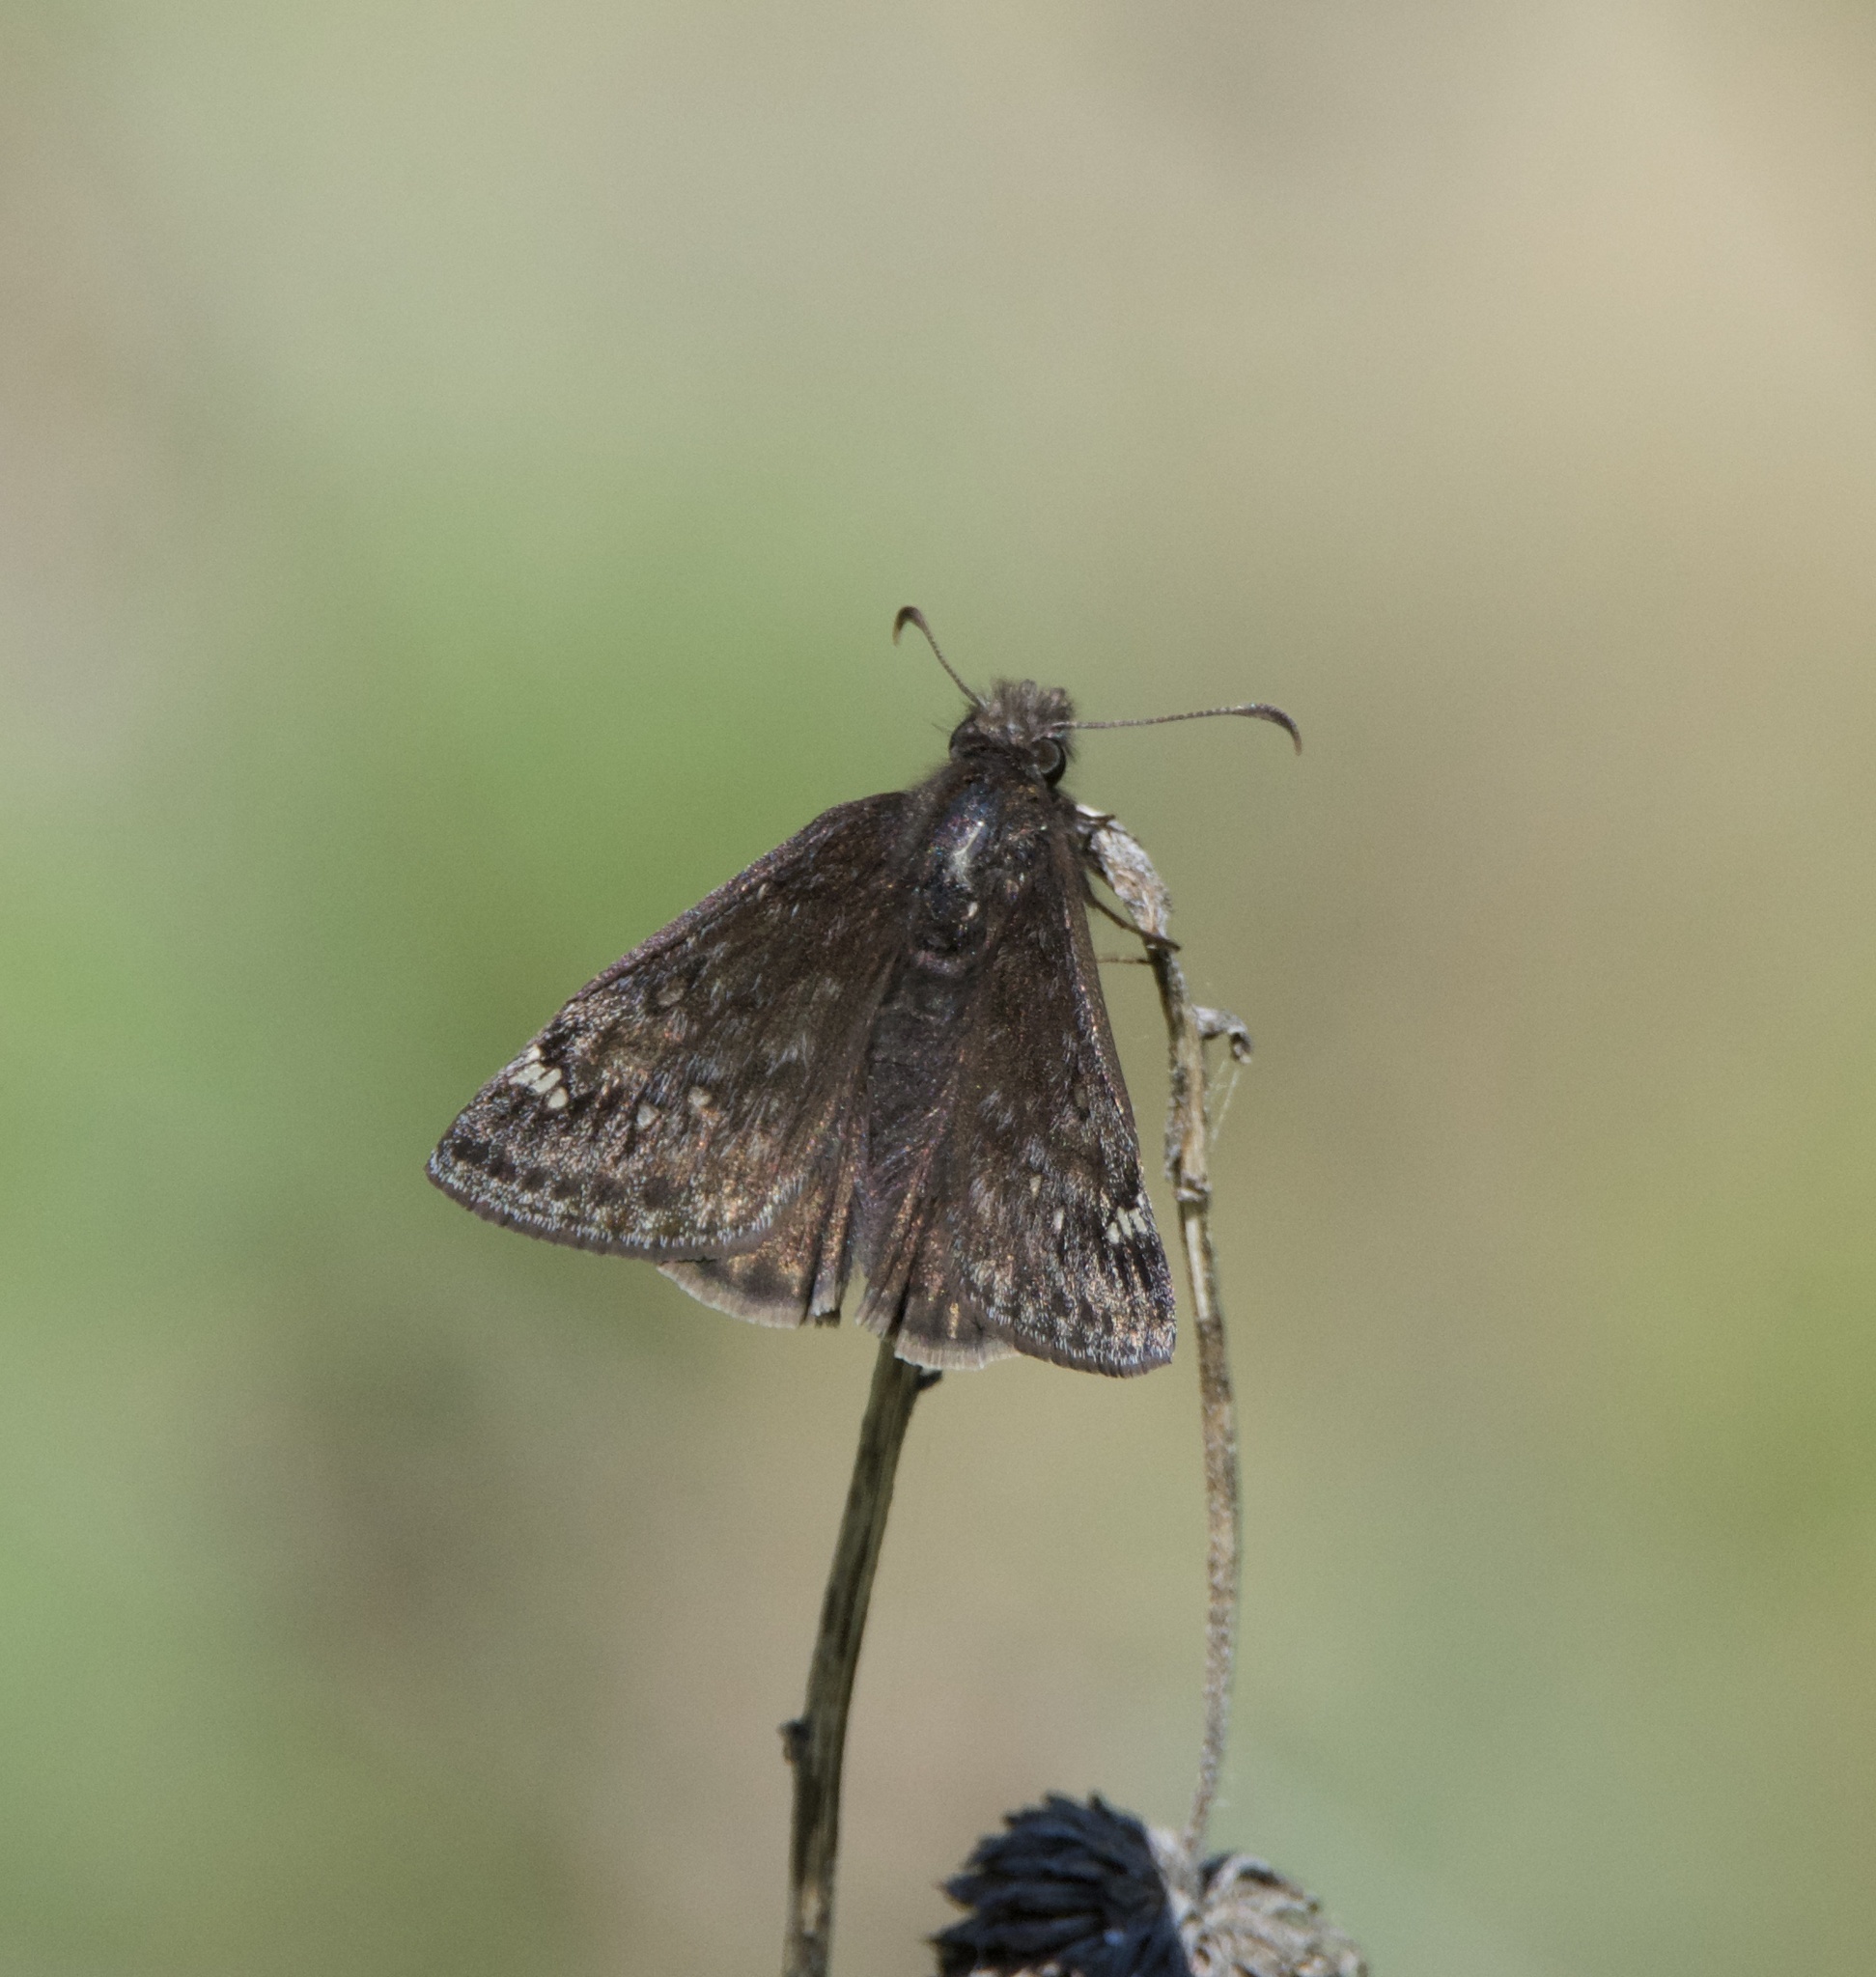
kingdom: Animalia
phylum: Arthropoda
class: Insecta
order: Lepidoptera
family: Hesperiidae
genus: Erynnis
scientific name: Erynnis juvenalis
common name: Juvenal's duskywing
